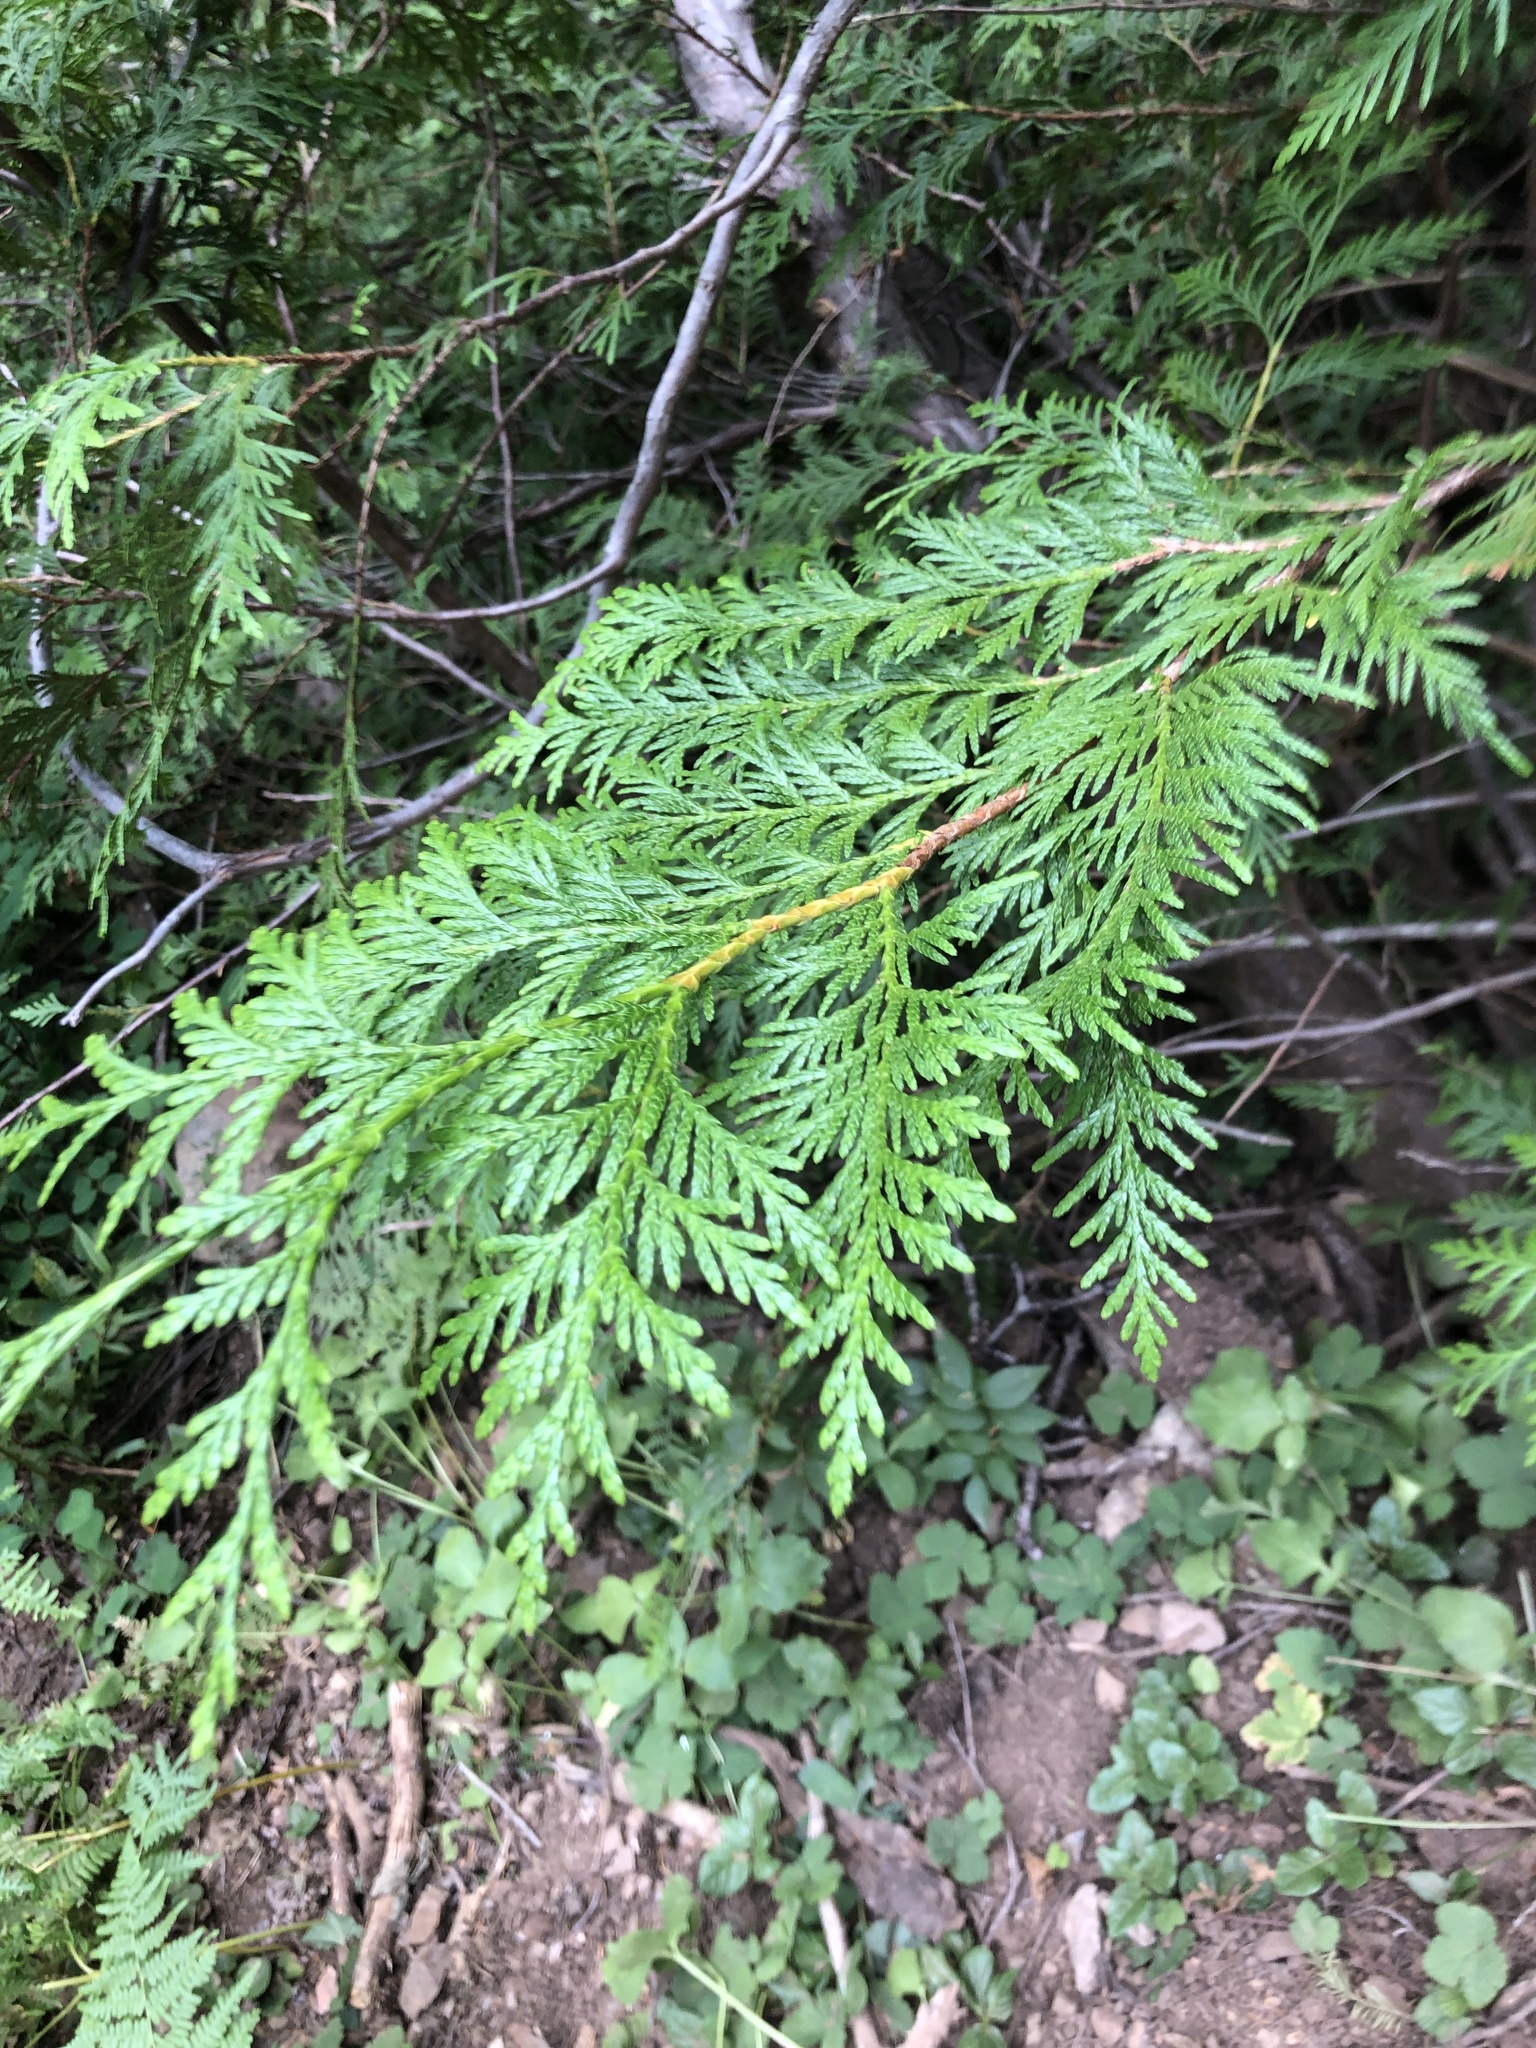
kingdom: Plantae
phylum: Tracheophyta
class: Pinopsida
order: Pinales
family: Cupressaceae
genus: Thuja
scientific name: Thuja plicata
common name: Western red-cedar
